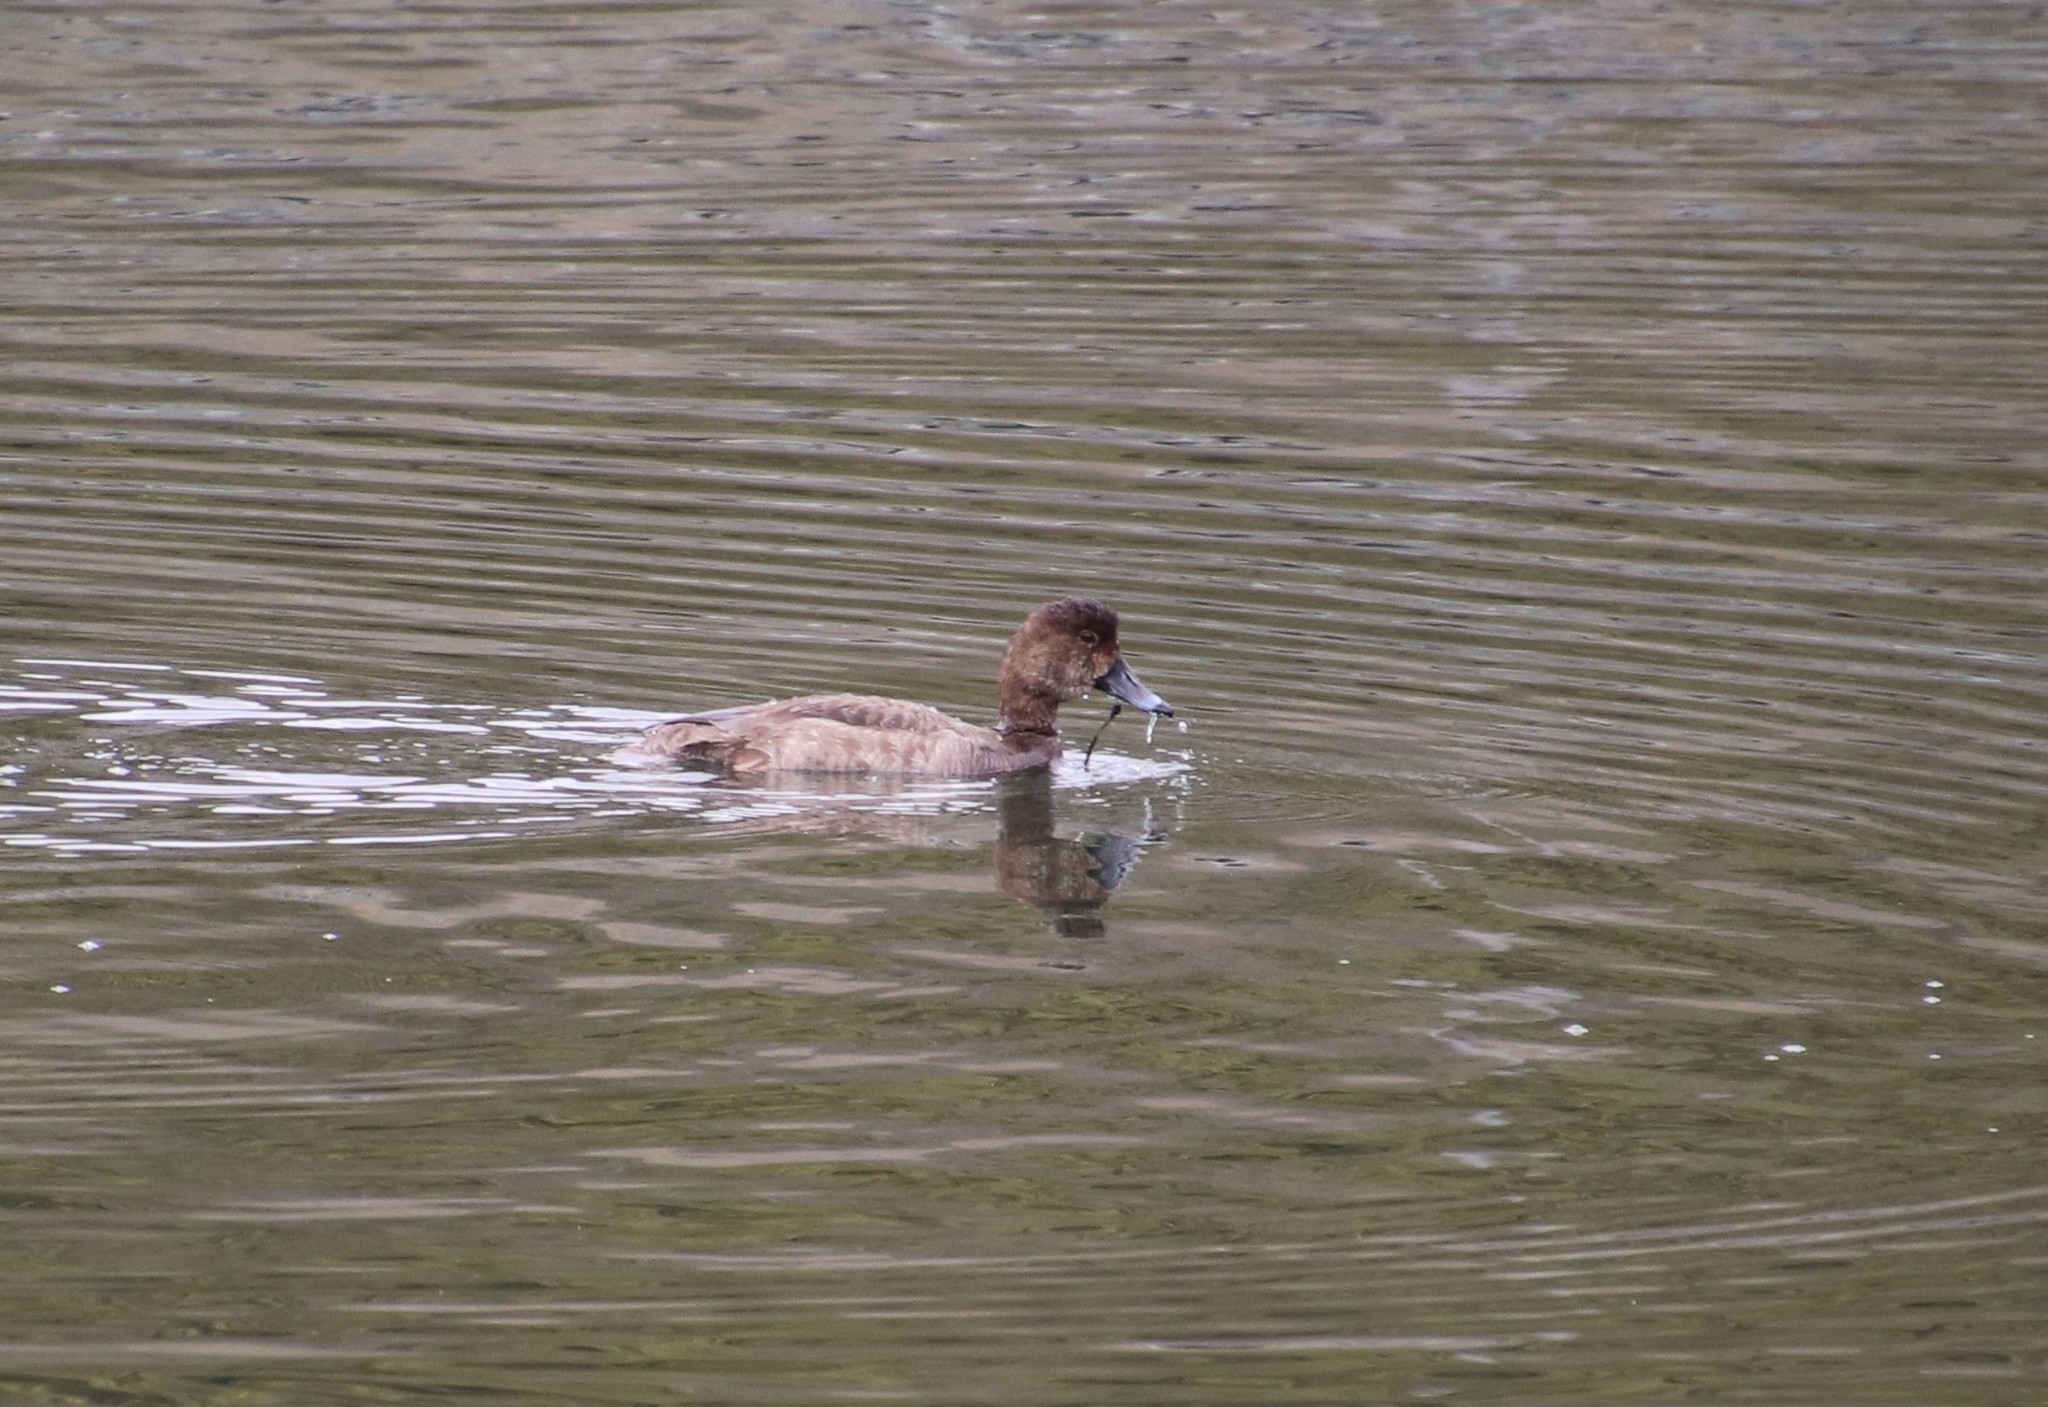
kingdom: Animalia
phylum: Chordata
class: Aves
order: Anseriformes
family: Anatidae
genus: Aythya
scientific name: Aythya americana
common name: Redhead
